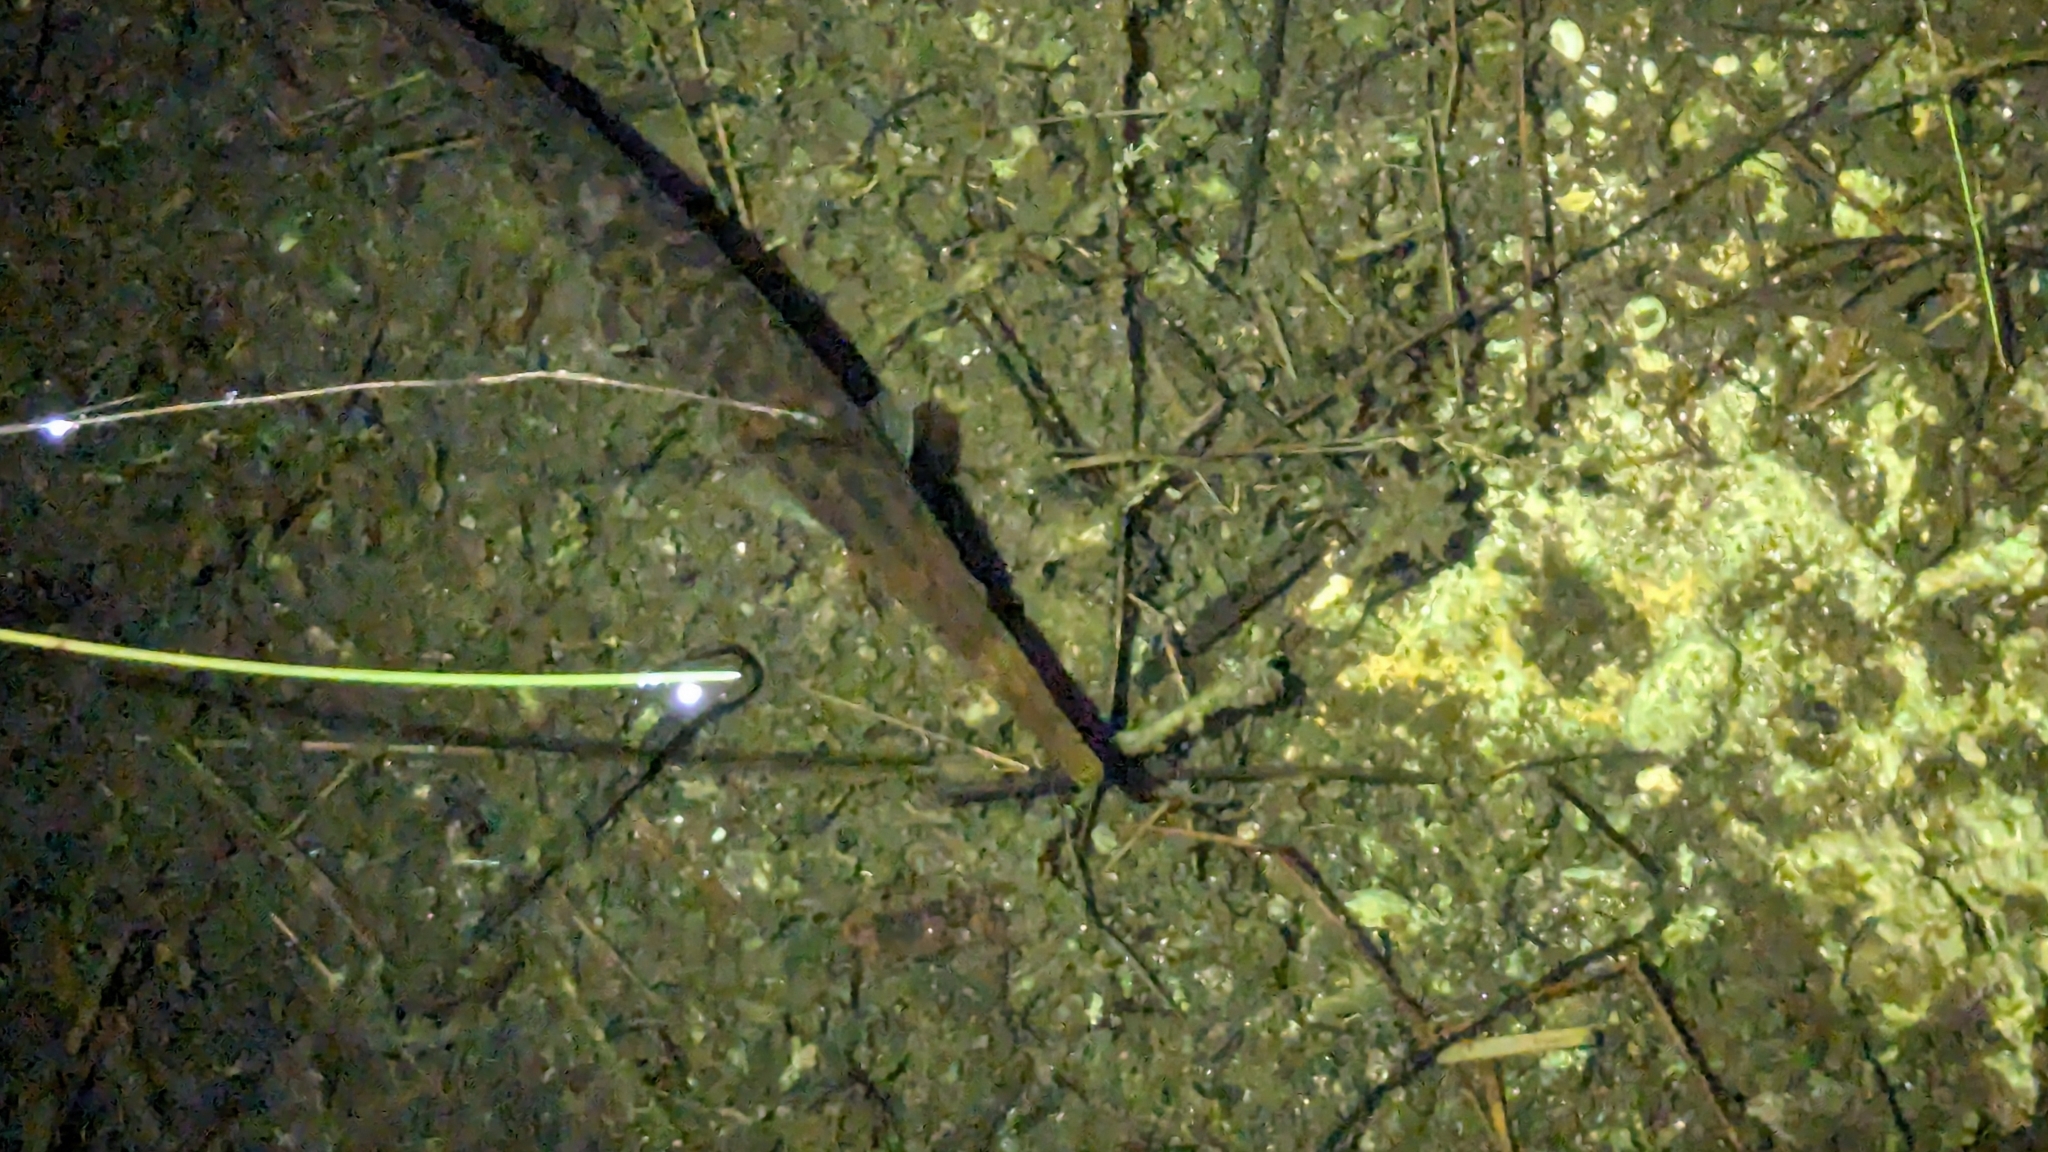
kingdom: Animalia
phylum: Chordata
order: Lepisosteiformes
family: Lepisosteidae
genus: Lepisosteus
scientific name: Lepisosteus platyrhincus
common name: Florida gar
